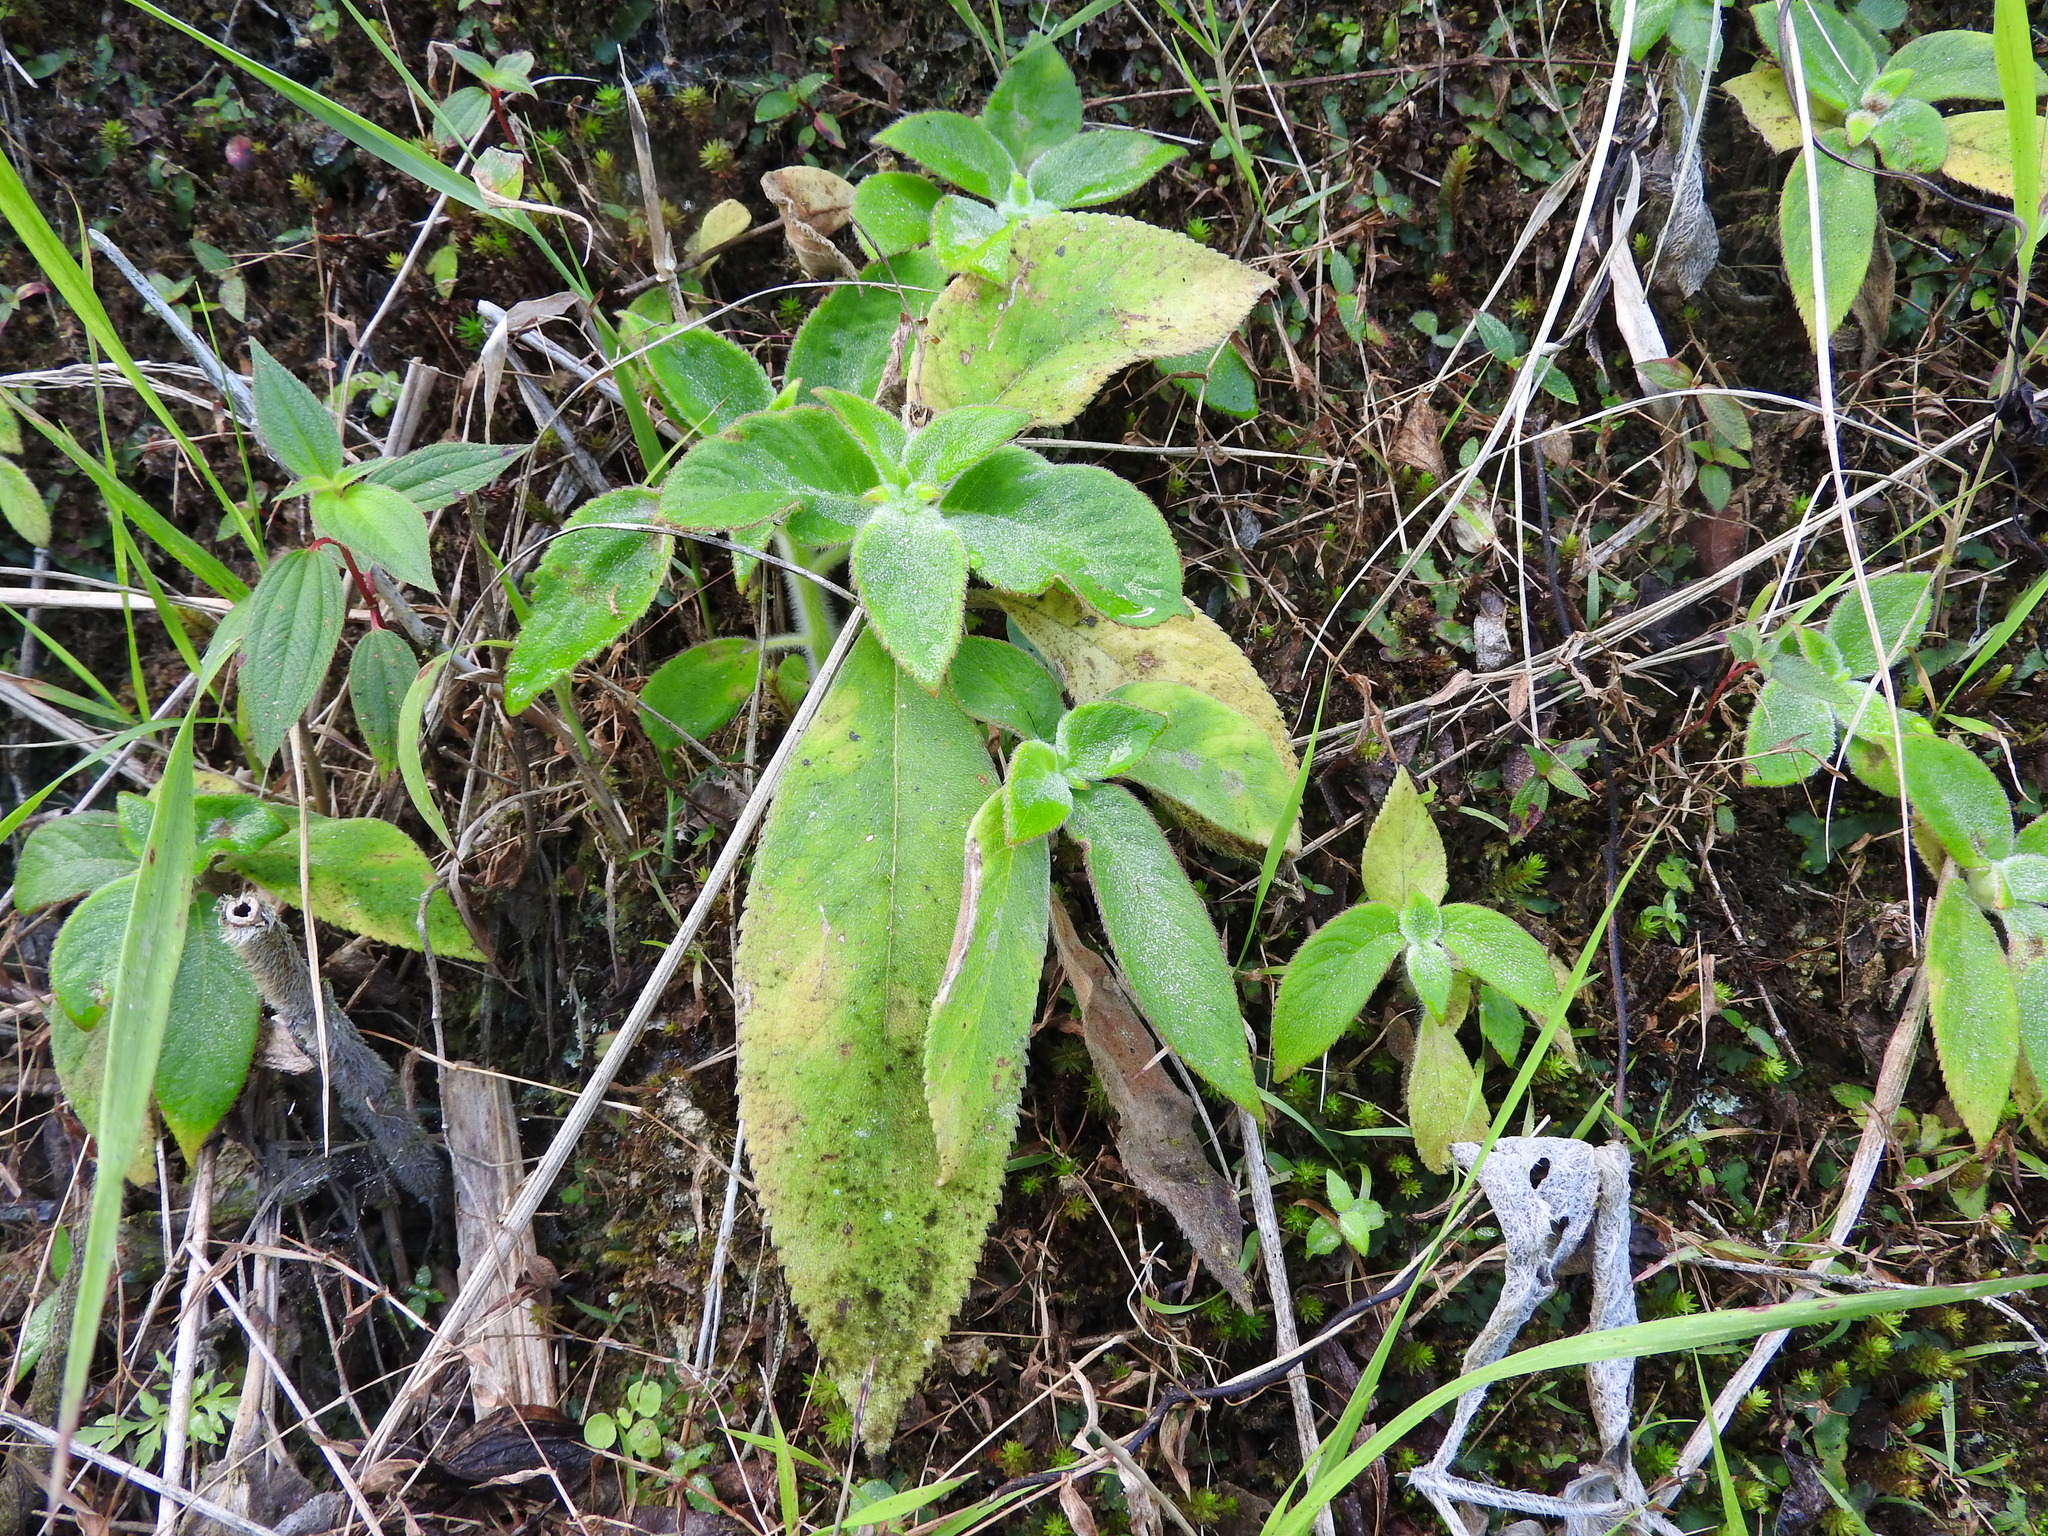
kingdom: Plantae
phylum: Tracheophyta
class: Magnoliopsida
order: Lamiales
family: Gesneriaceae
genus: Kohleria
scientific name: Kohleria spicata
